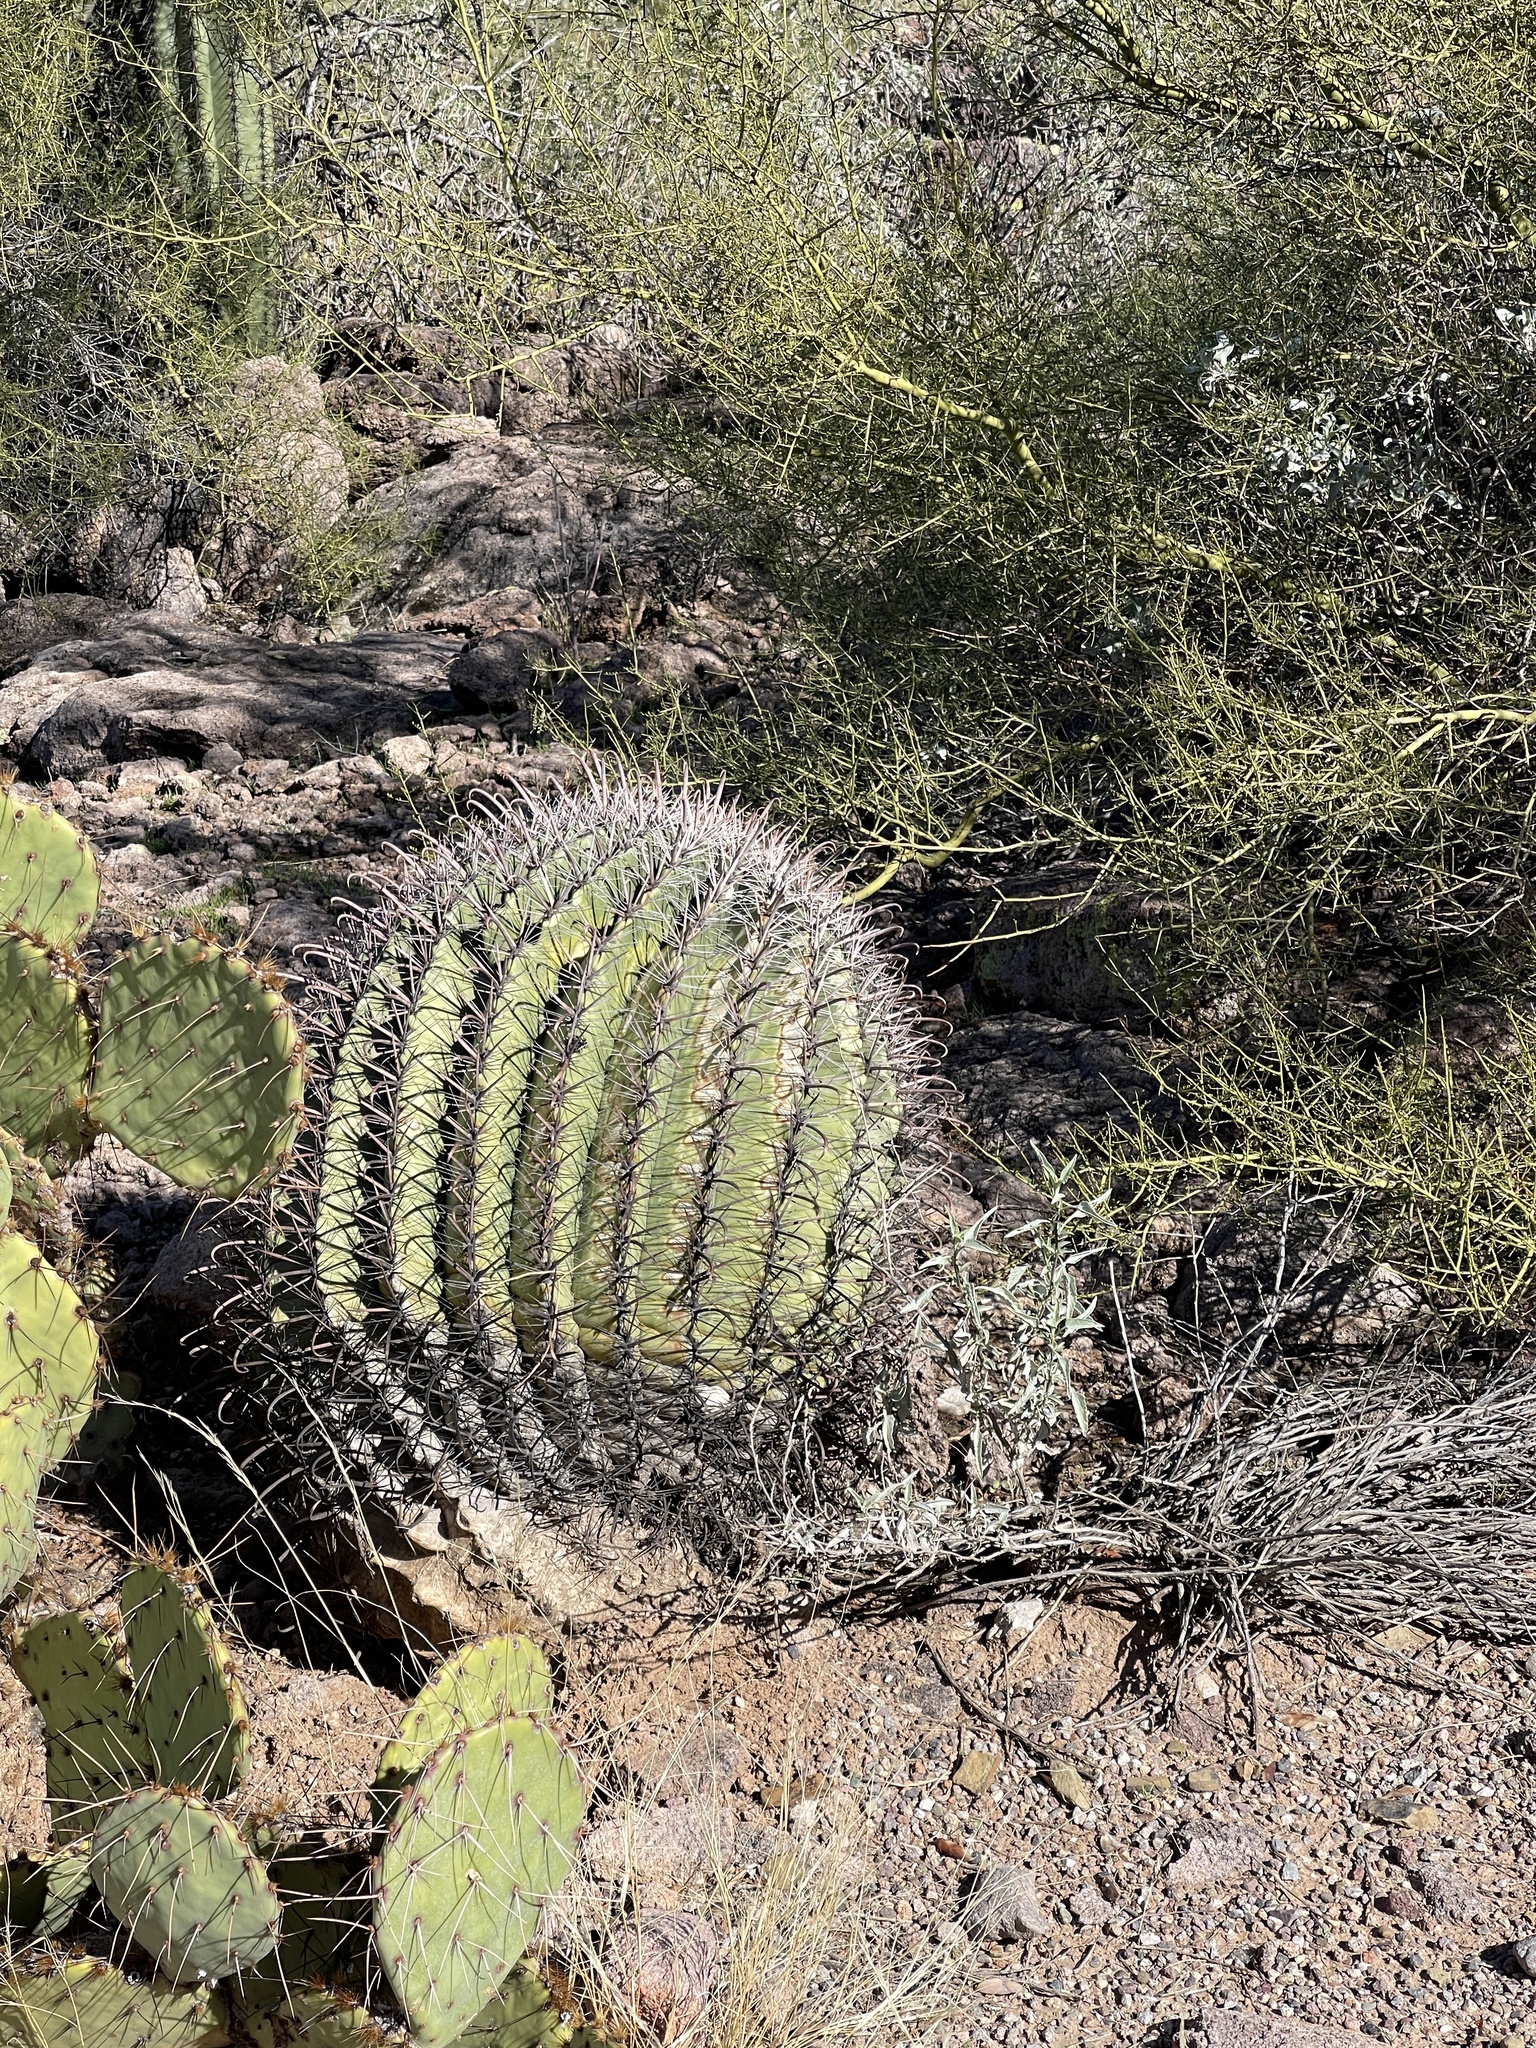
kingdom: Plantae
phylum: Tracheophyta
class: Magnoliopsida
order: Caryophyllales
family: Cactaceae
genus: Ferocactus
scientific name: Ferocactus wislizeni
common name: Candy barrel cactus
